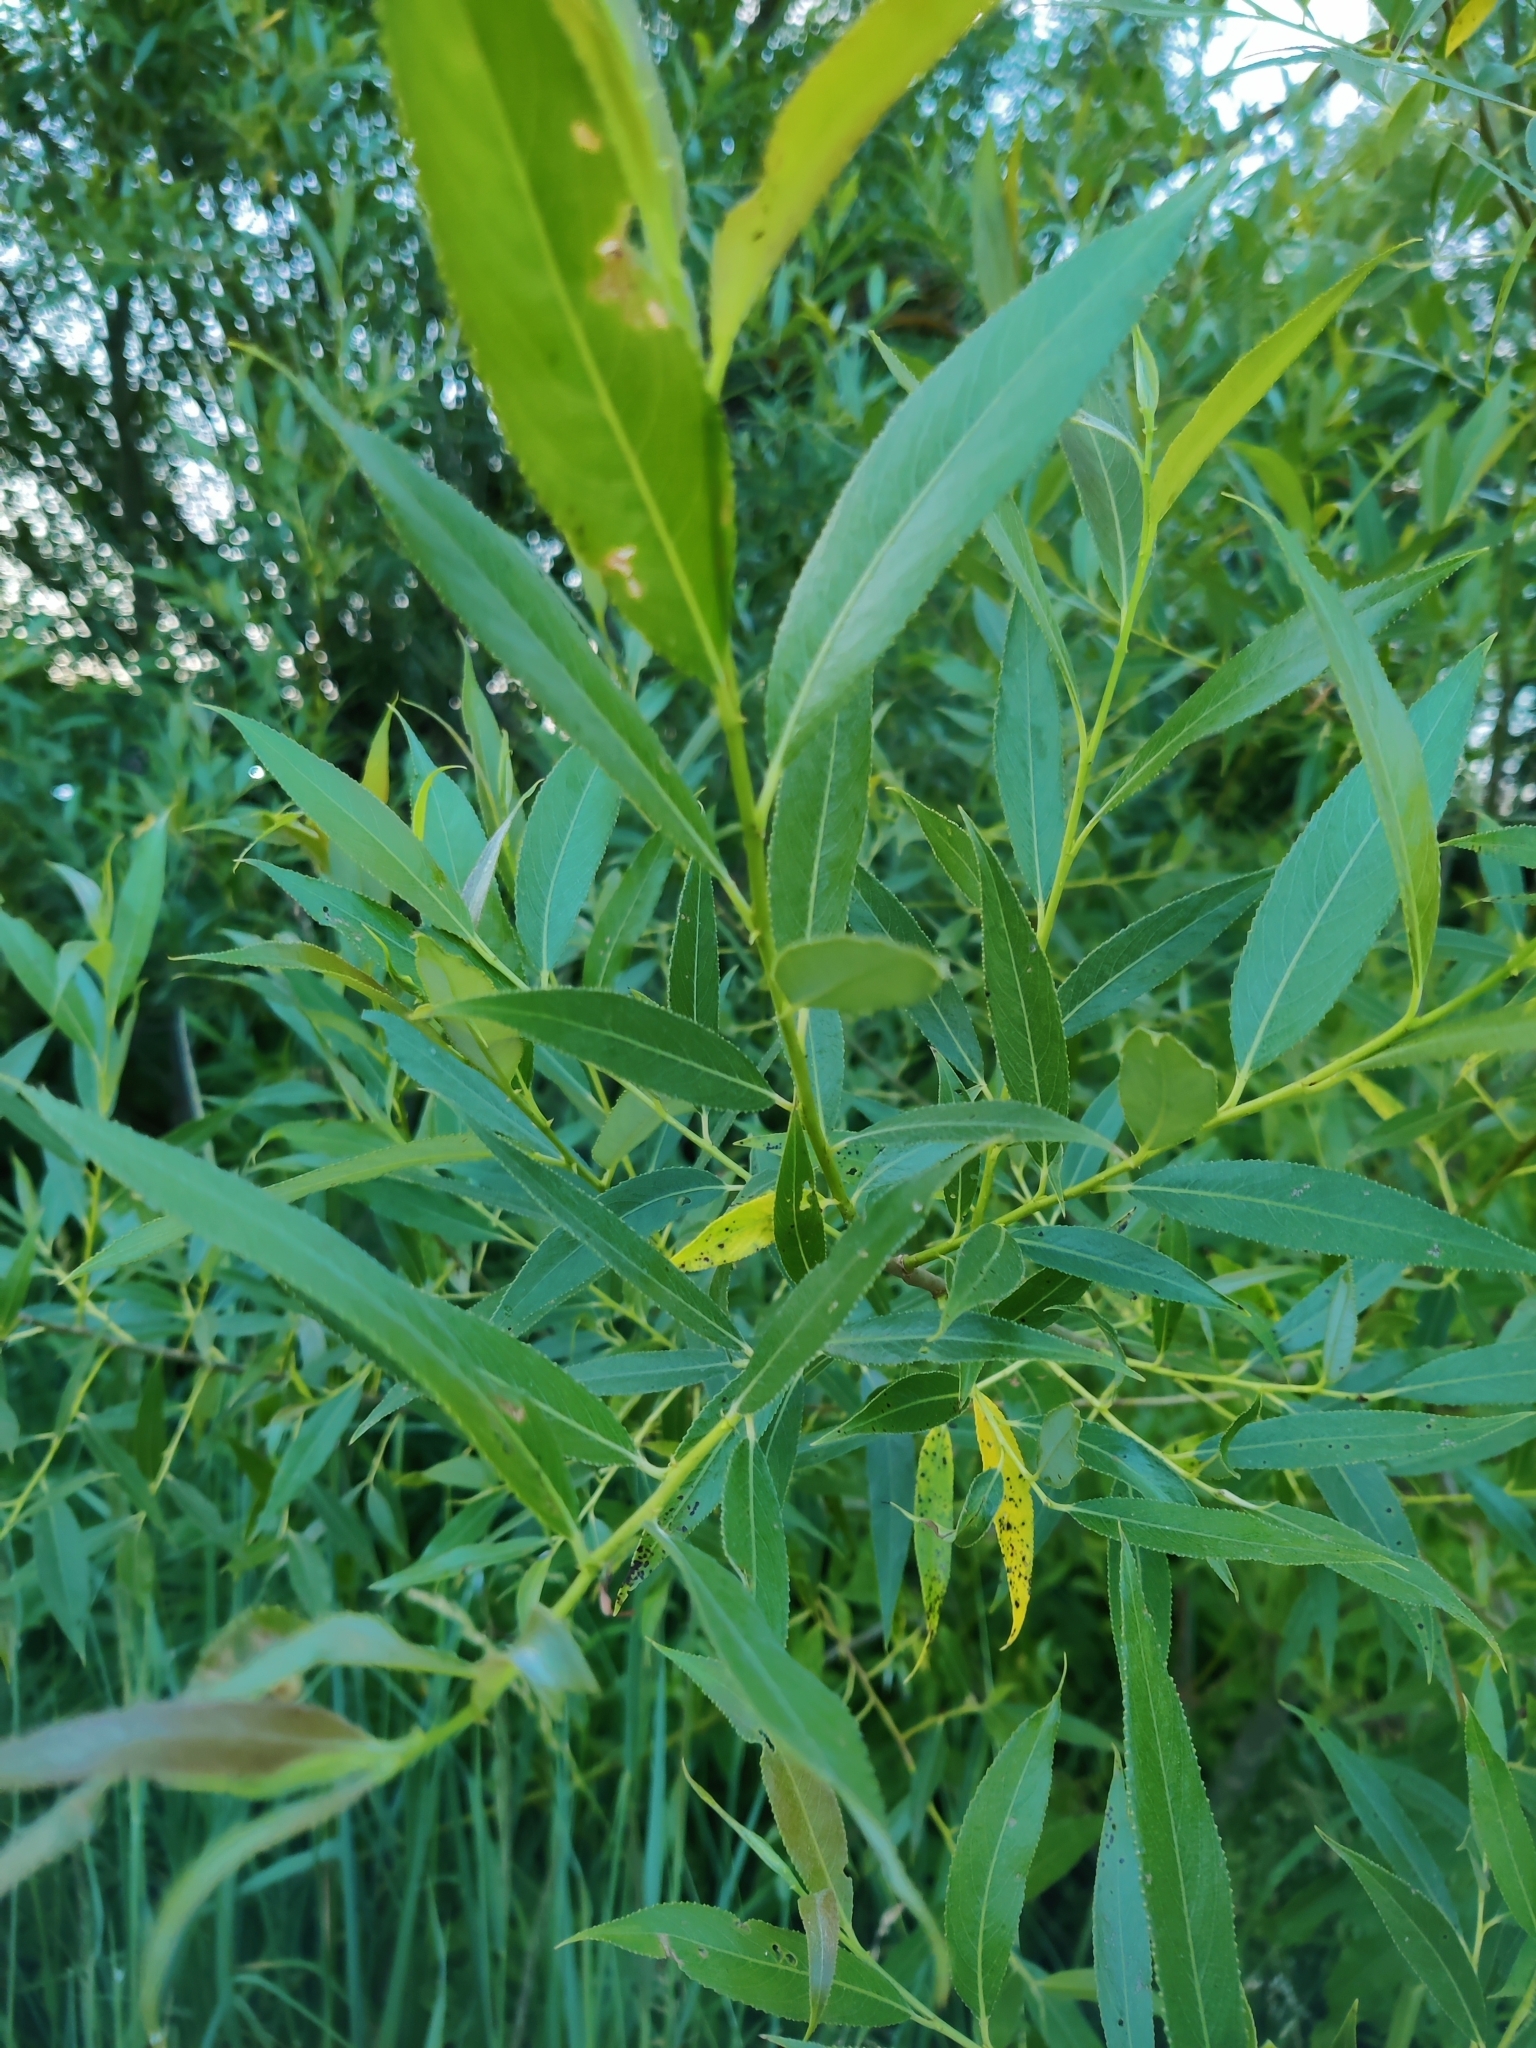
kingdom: Plantae
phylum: Tracheophyta
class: Magnoliopsida
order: Malpighiales
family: Salicaceae
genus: Salix
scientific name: Salix triandra
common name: Almond willow
